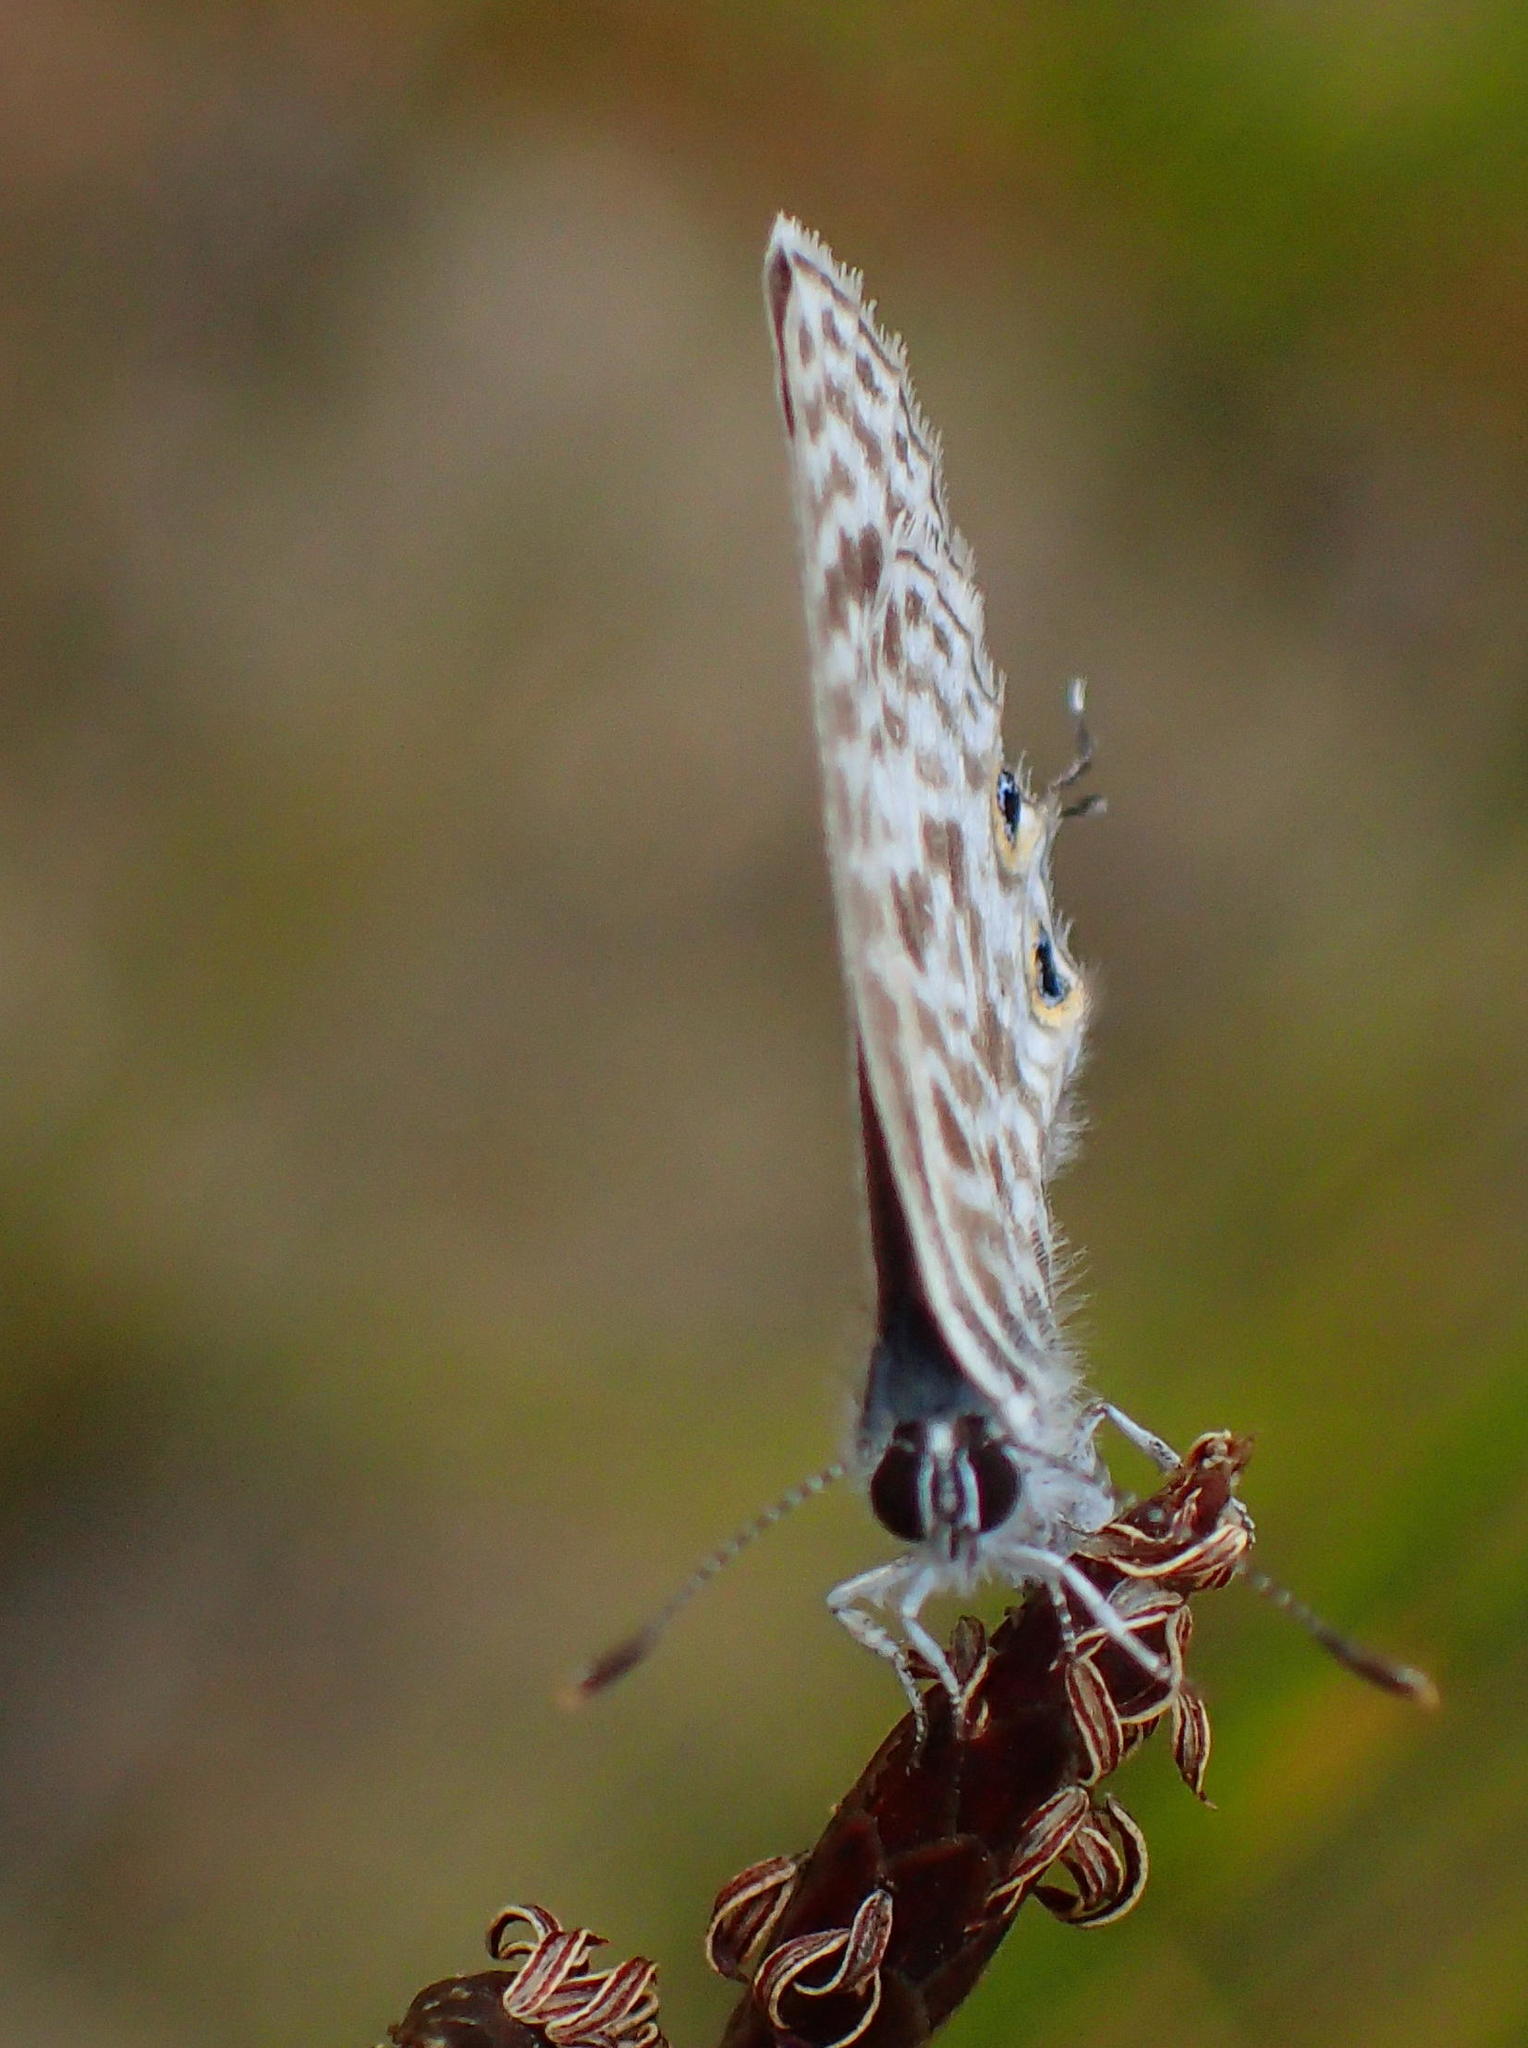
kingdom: Animalia
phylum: Arthropoda
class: Insecta
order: Lepidoptera
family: Lycaenidae
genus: Leptotes
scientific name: Leptotes
